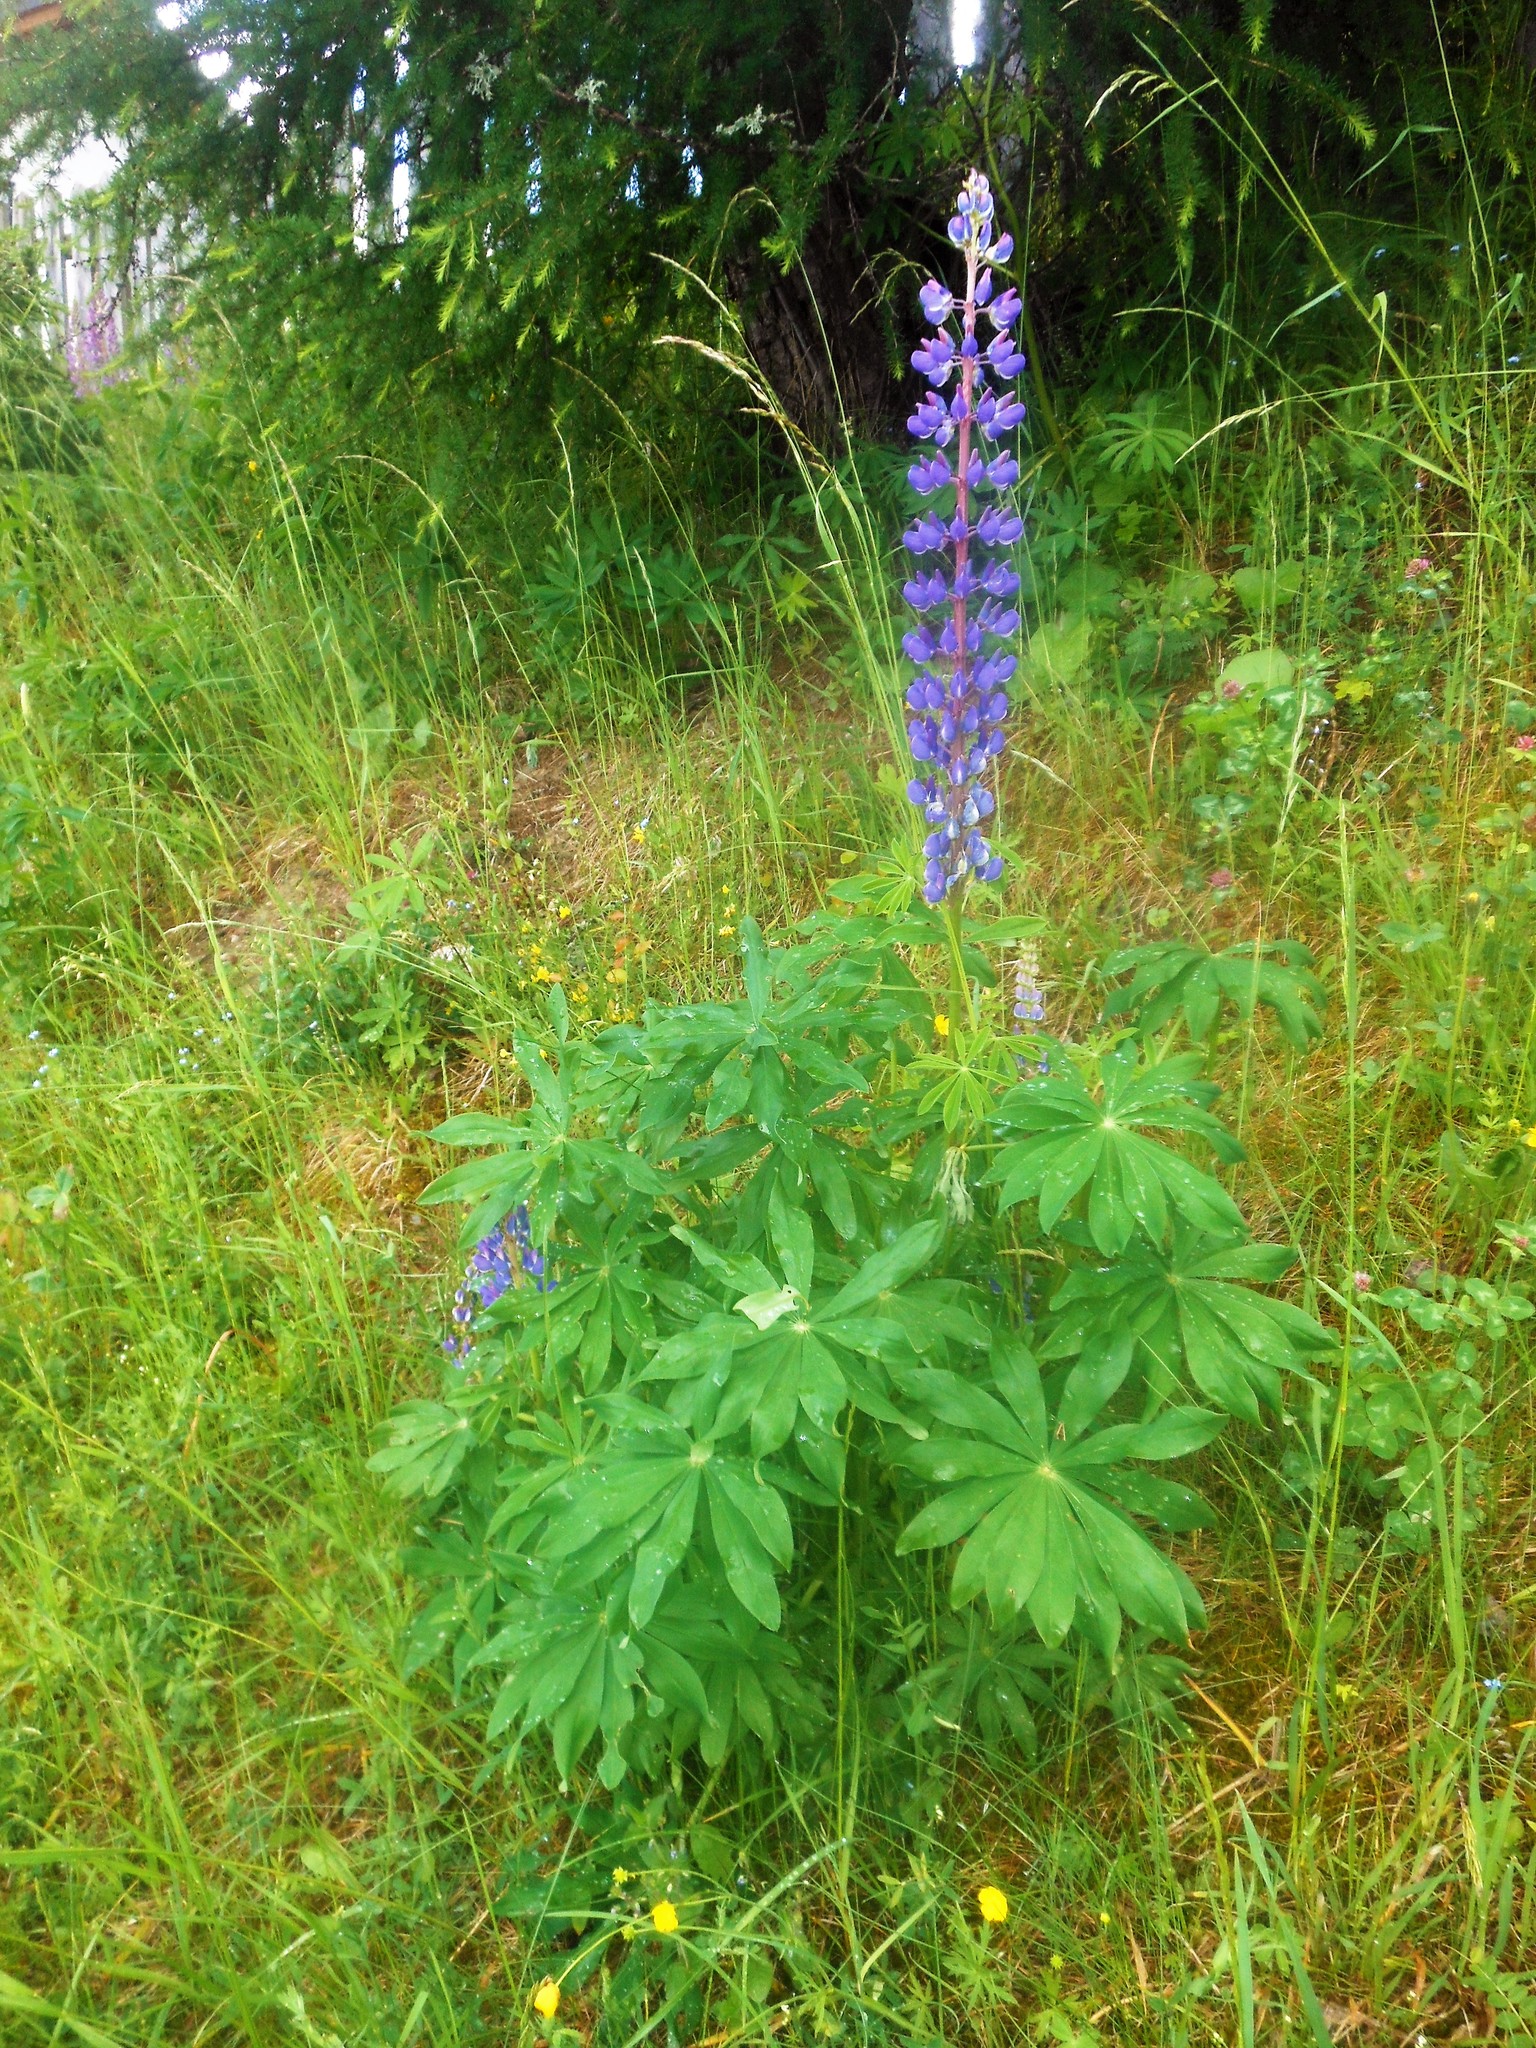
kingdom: Plantae
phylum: Tracheophyta
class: Magnoliopsida
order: Fabales
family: Fabaceae
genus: Lupinus
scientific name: Lupinus polyphyllus
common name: Garden lupin
